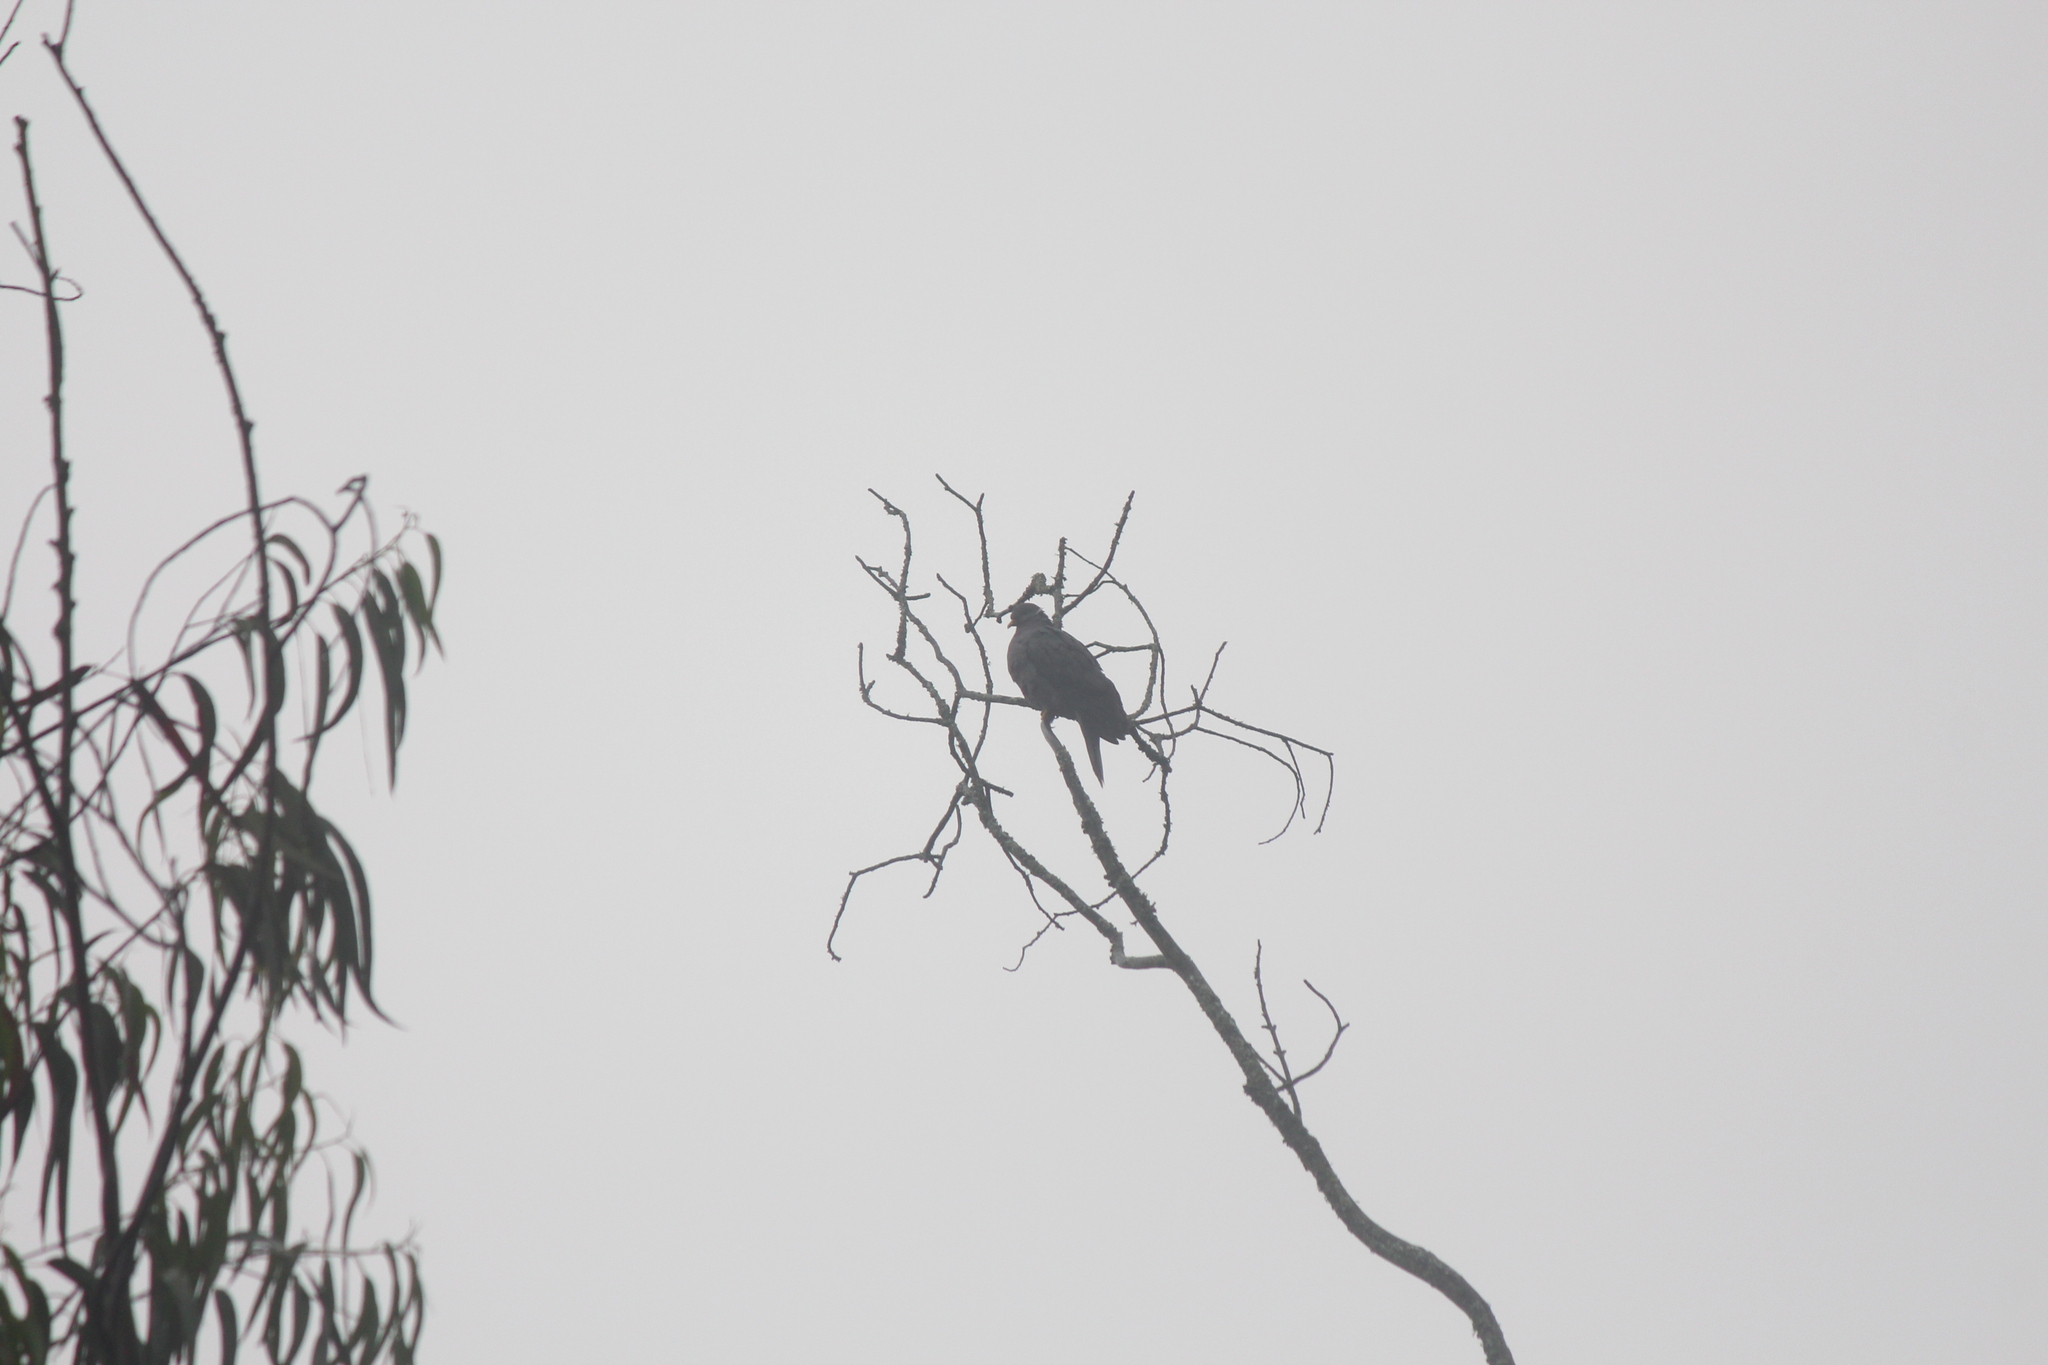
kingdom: Animalia
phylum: Chordata
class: Aves
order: Columbiformes
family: Columbidae
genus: Patagioenas
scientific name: Patagioenas fasciata
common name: Band-tailed pigeon
